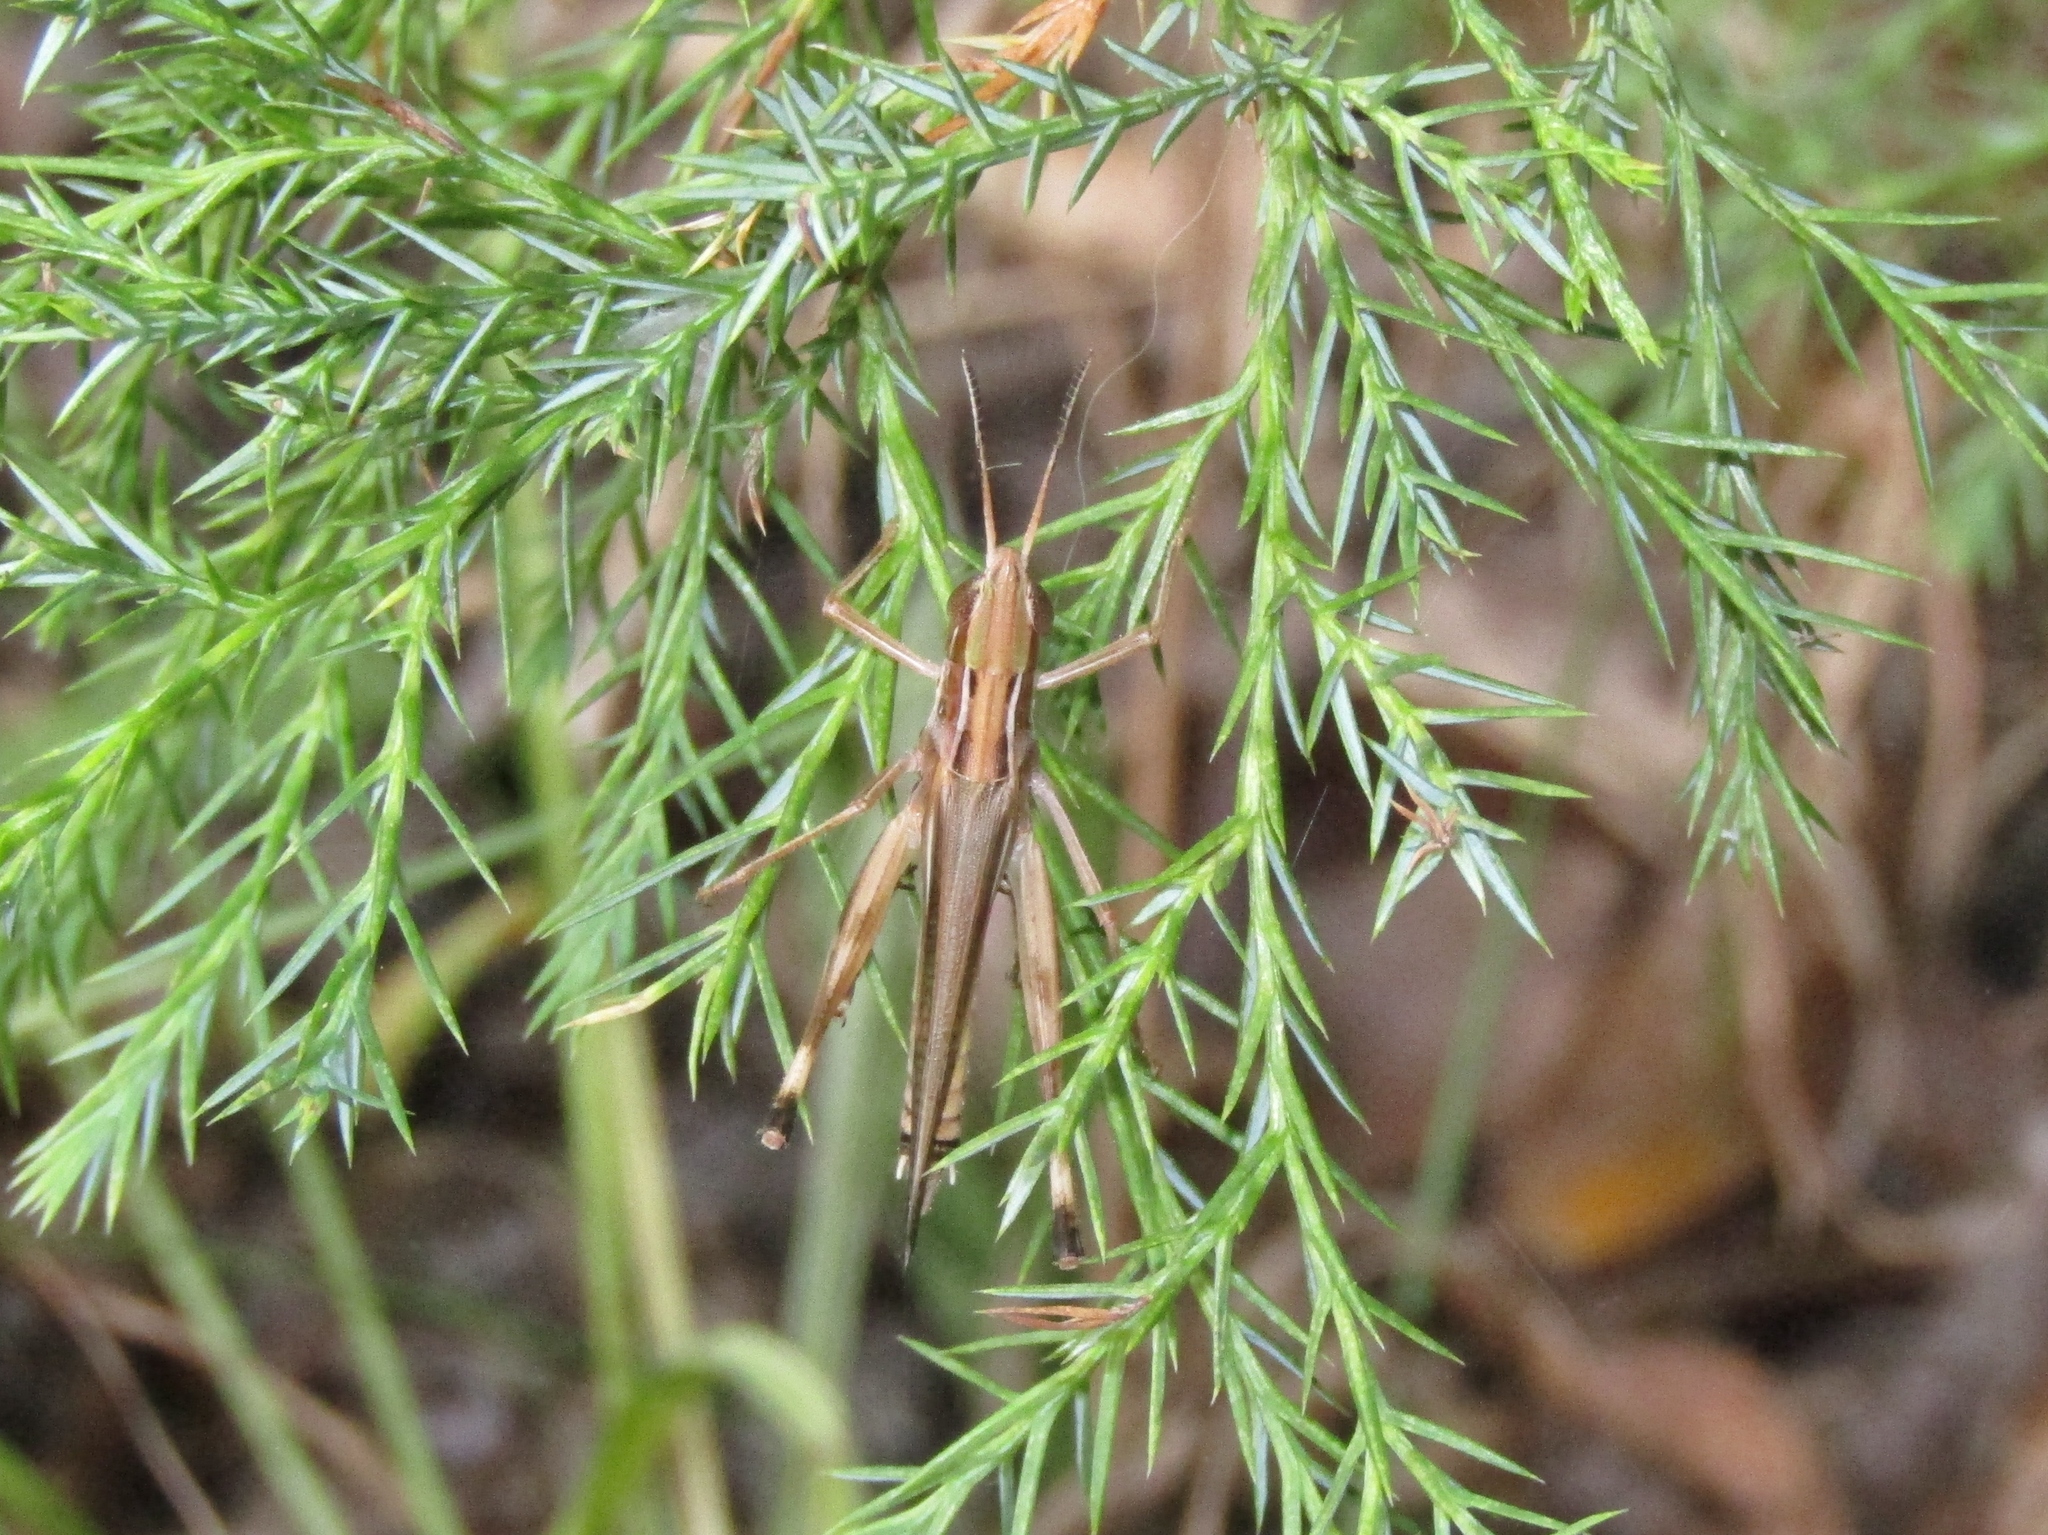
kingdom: Animalia
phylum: Arthropoda
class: Insecta
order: Orthoptera
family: Acrididae
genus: Syrbula
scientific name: Syrbula admirabilis
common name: Handsome grasshopper
